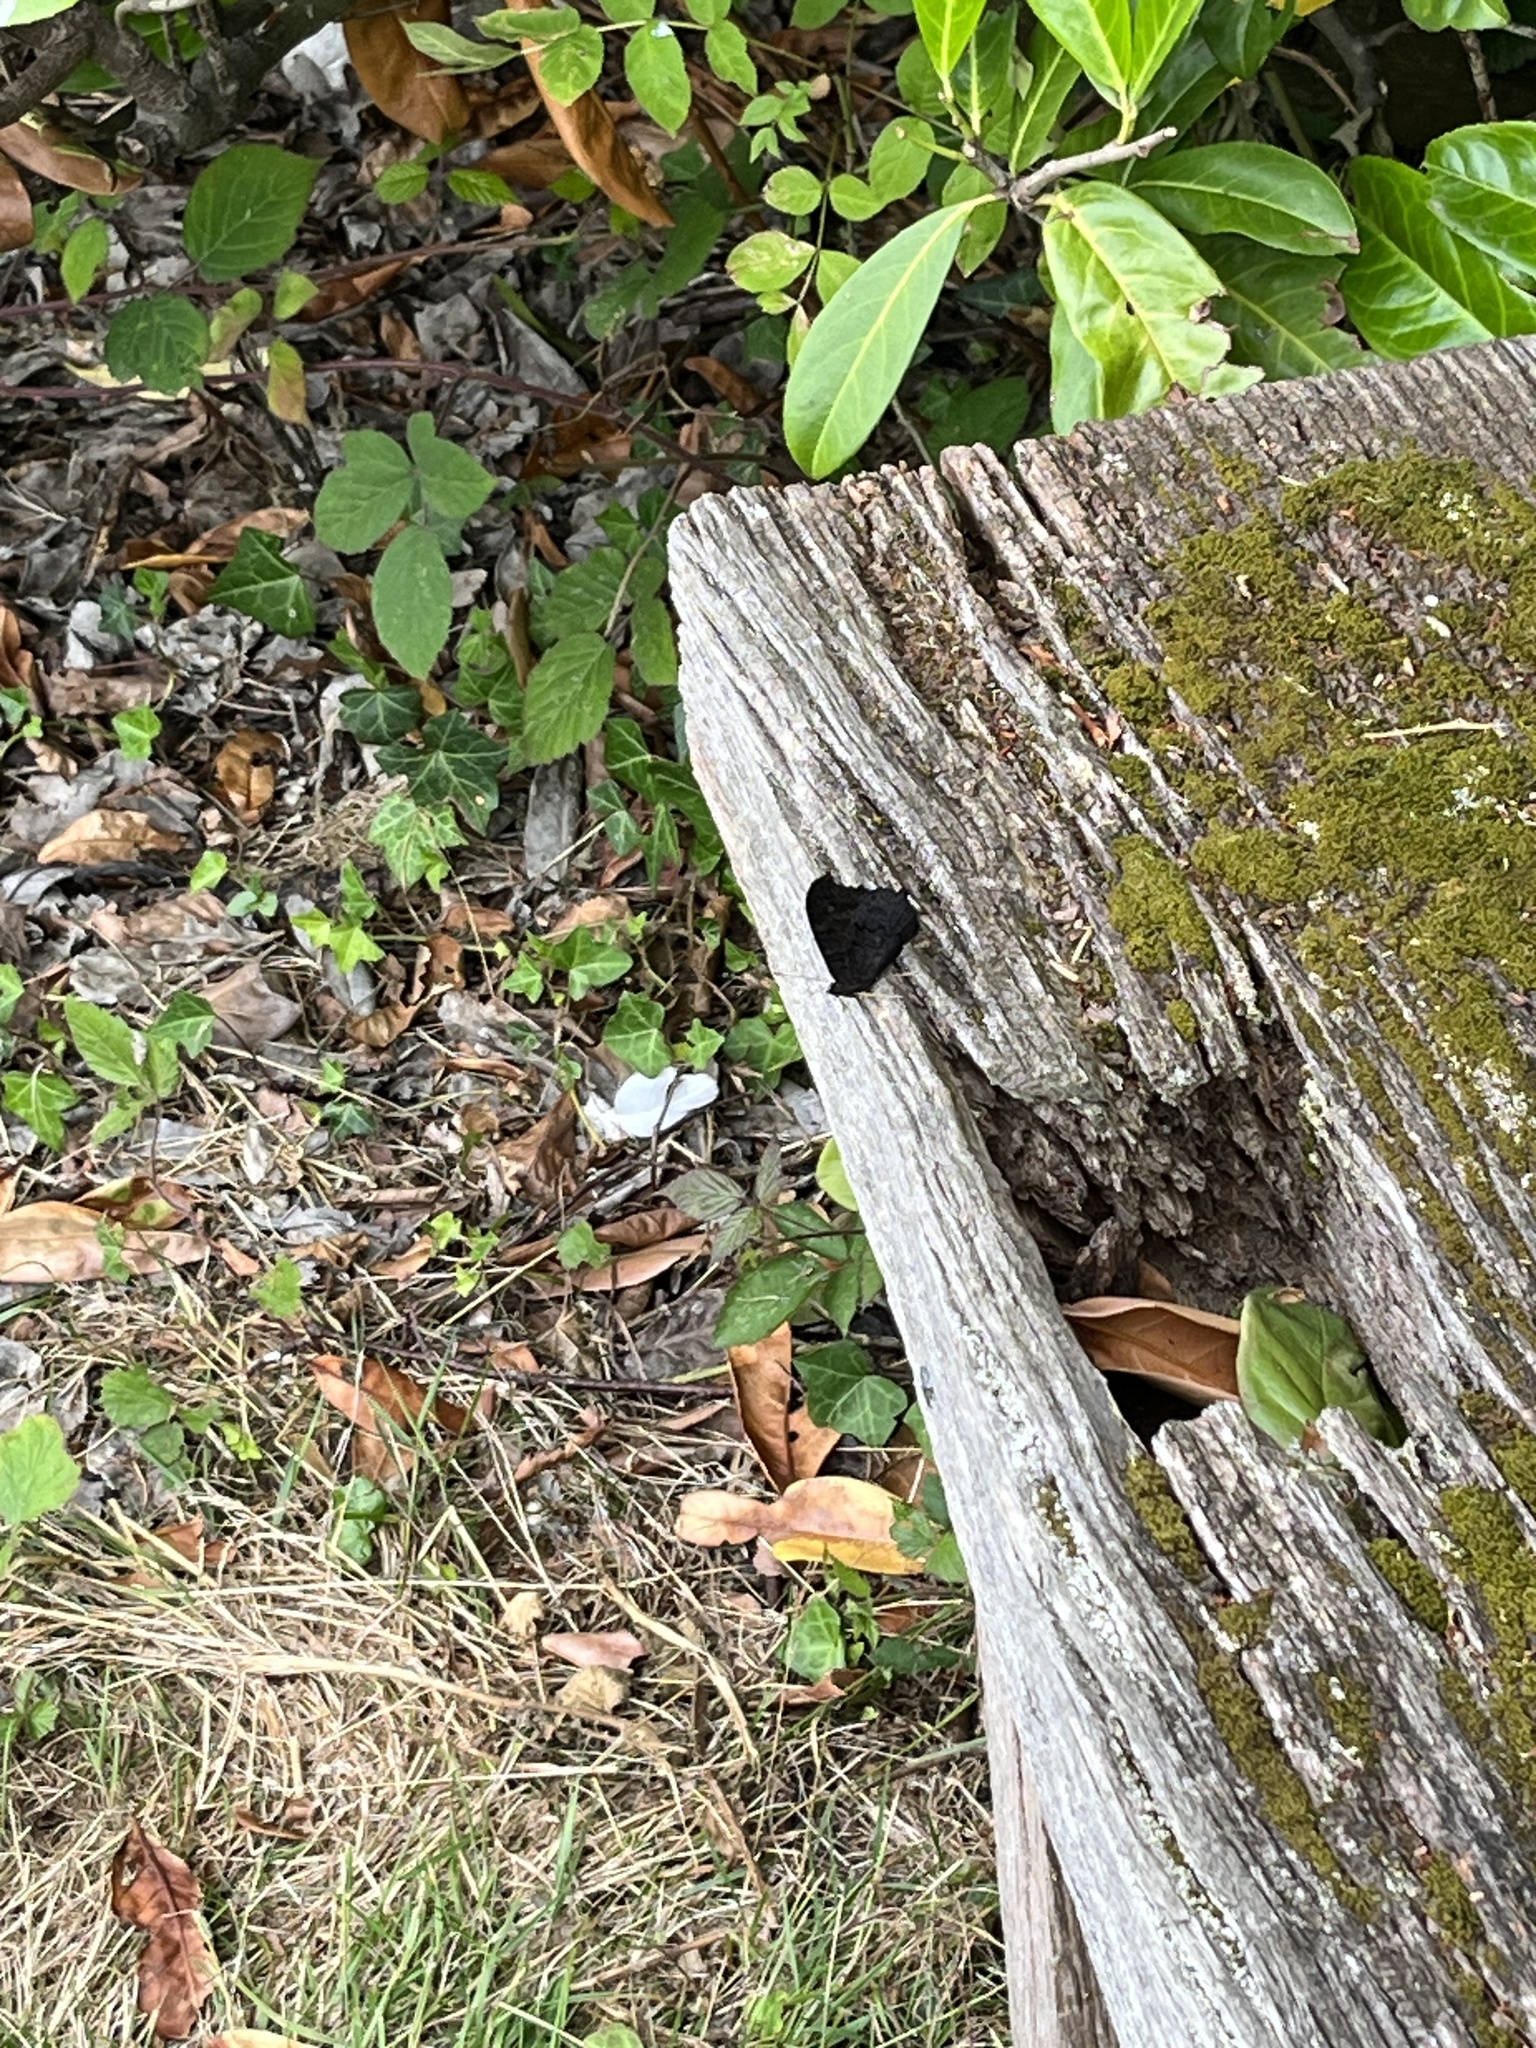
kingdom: Animalia
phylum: Arthropoda
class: Insecta
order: Lepidoptera
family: Nymphalidae
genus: Aglais
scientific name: Aglais io
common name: Peacock
